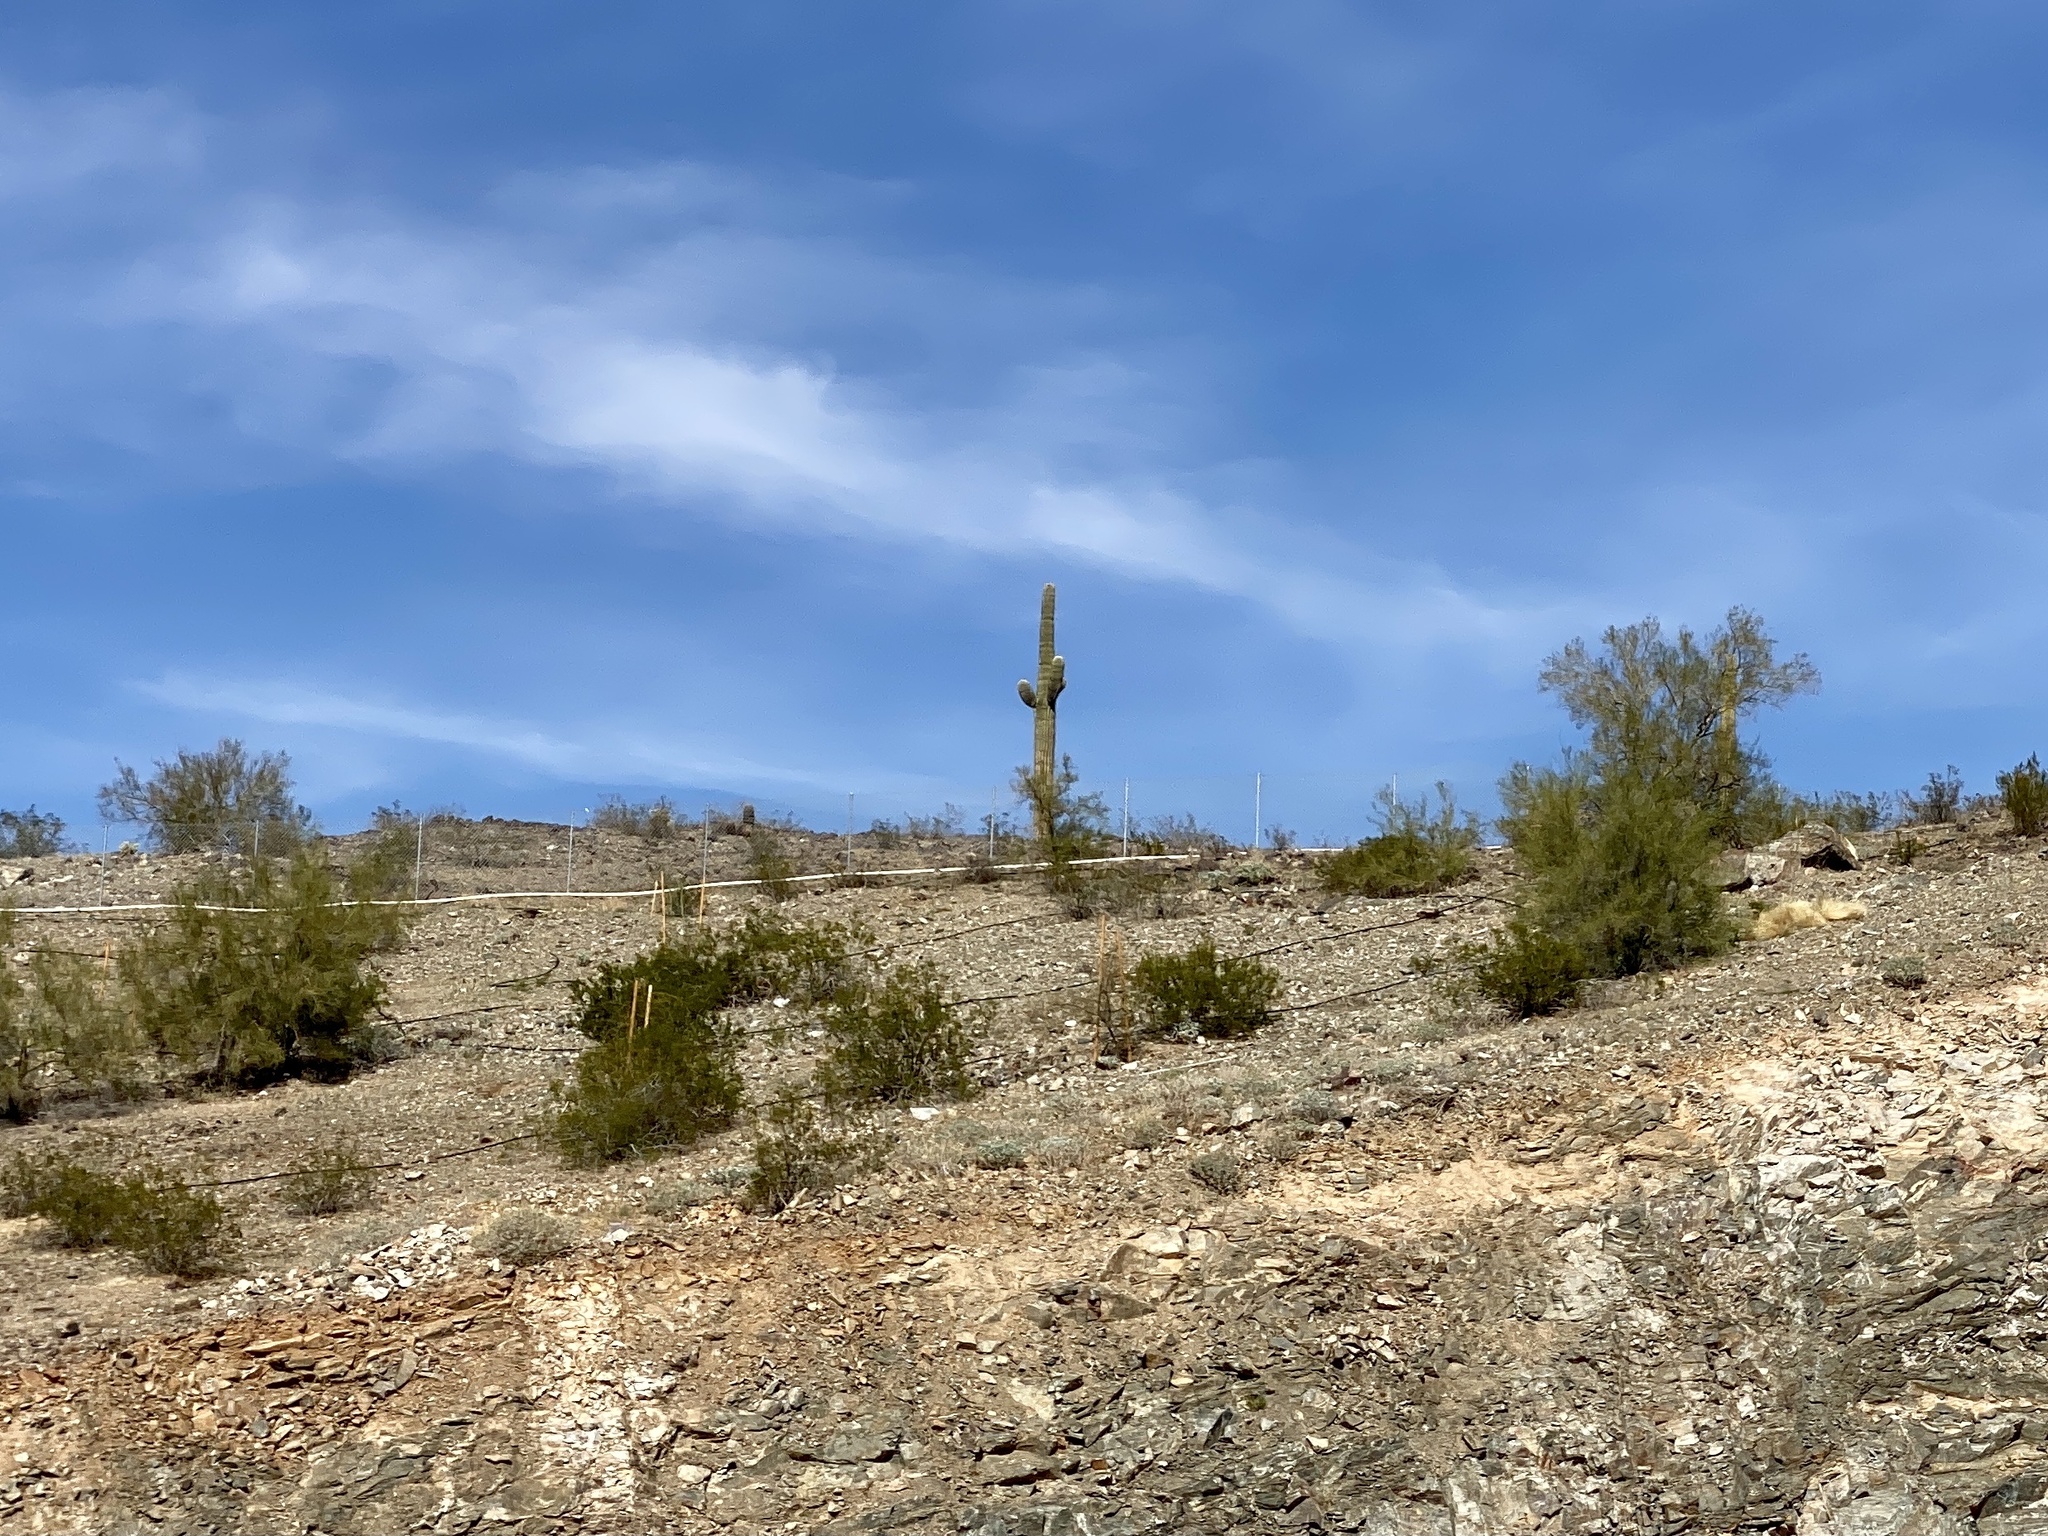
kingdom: Plantae
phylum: Tracheophyta
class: Magnoliopsida
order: Caryophyllales
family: Cactaceae
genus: Carnegiea
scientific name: Carnegiea gigantea
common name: Saguaro
